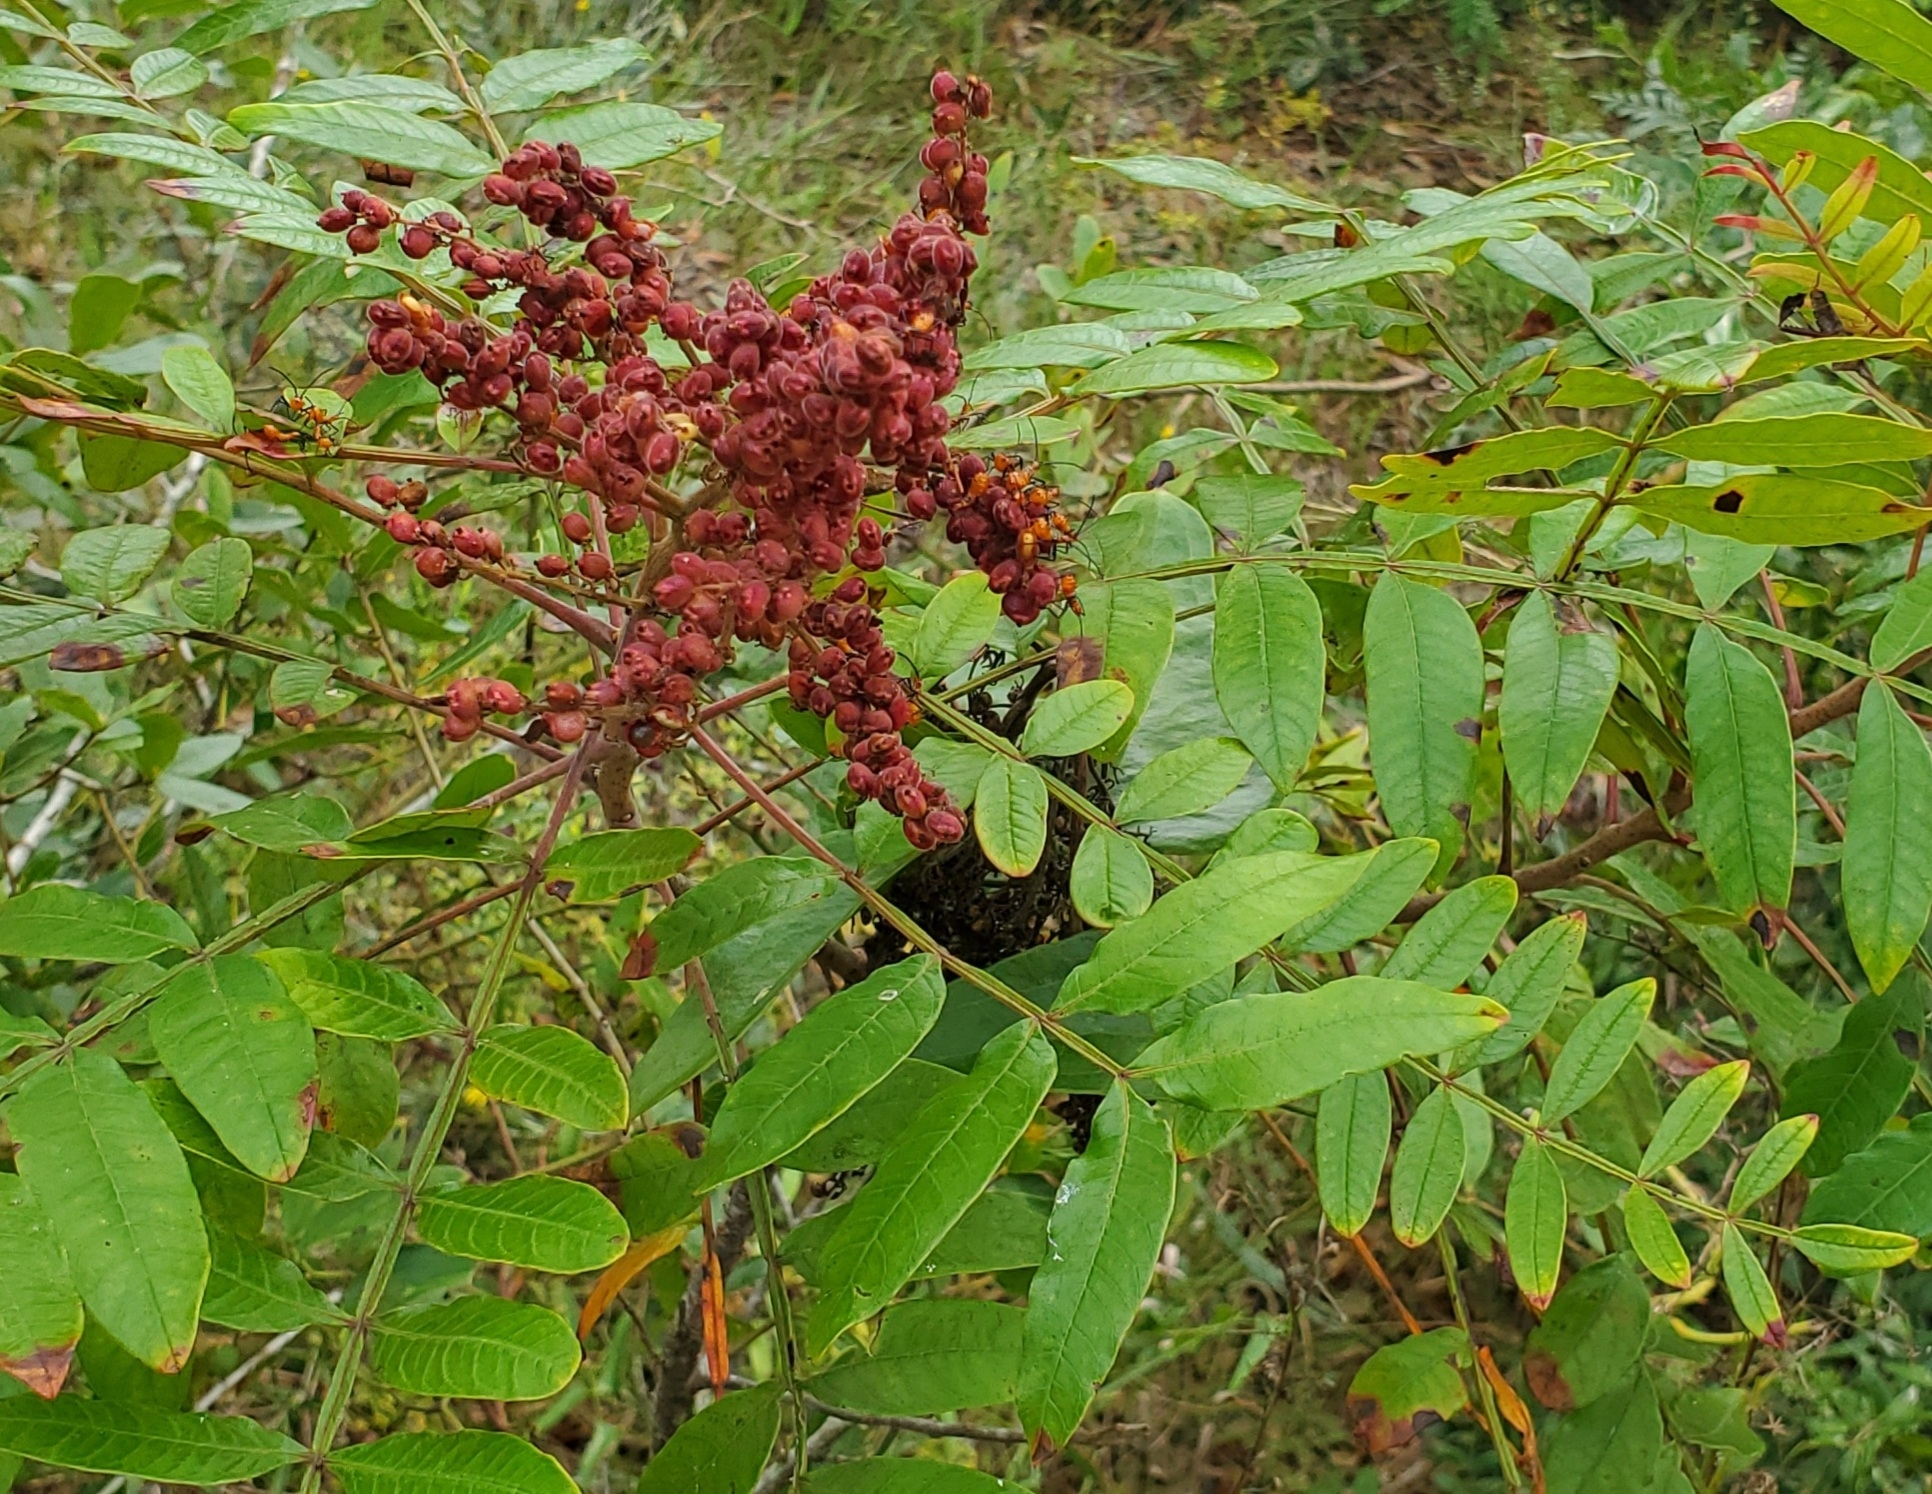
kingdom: Plantae
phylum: Tracheophyta
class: Magnoliopsida
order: Sapindales
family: Anacardiaceae
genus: Rhus
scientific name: Rhus copallina
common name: Shining sumac
